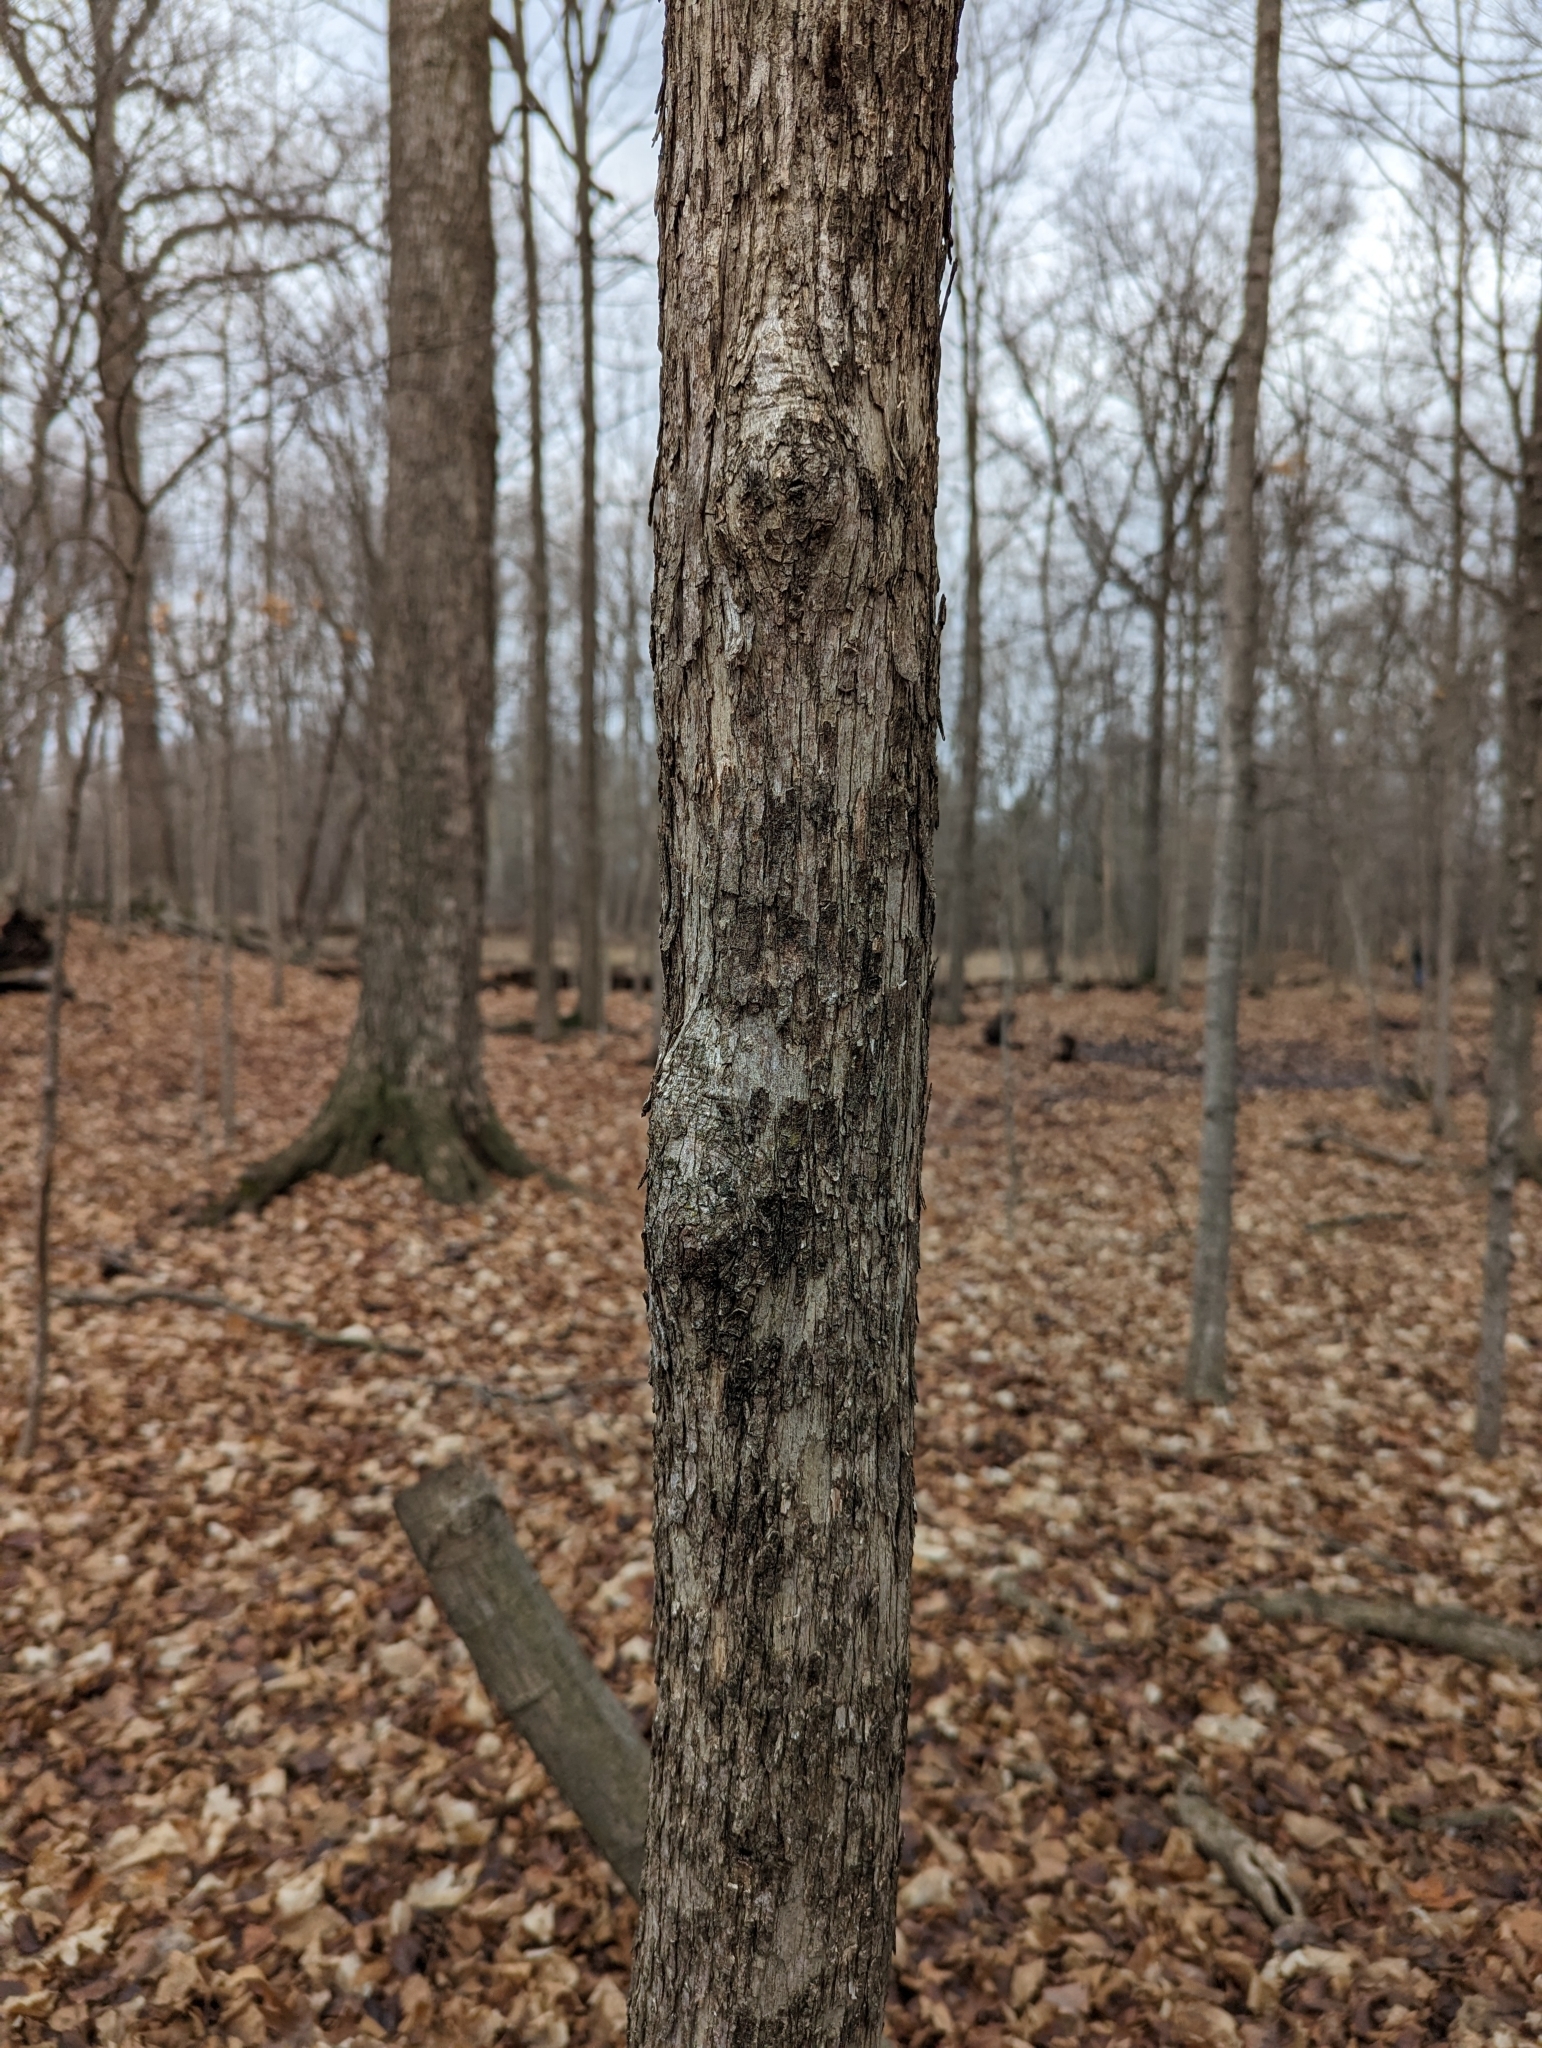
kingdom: Plantae
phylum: Tracheophyta
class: Magnoliopsida
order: Fagales
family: Betulaceae
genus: Ostrya
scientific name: Ostrya virginiana
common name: Ironwood
